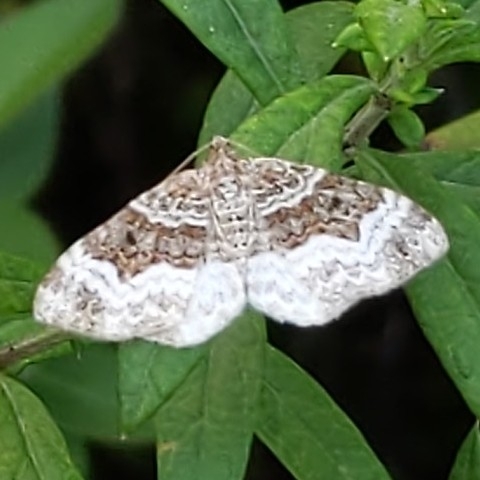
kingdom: Animalia
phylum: Arthropoda
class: Insecta
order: Lepidoptera
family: Geometridae
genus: Epirrhoe
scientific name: Epirrhoe alternata
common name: Common carpet
